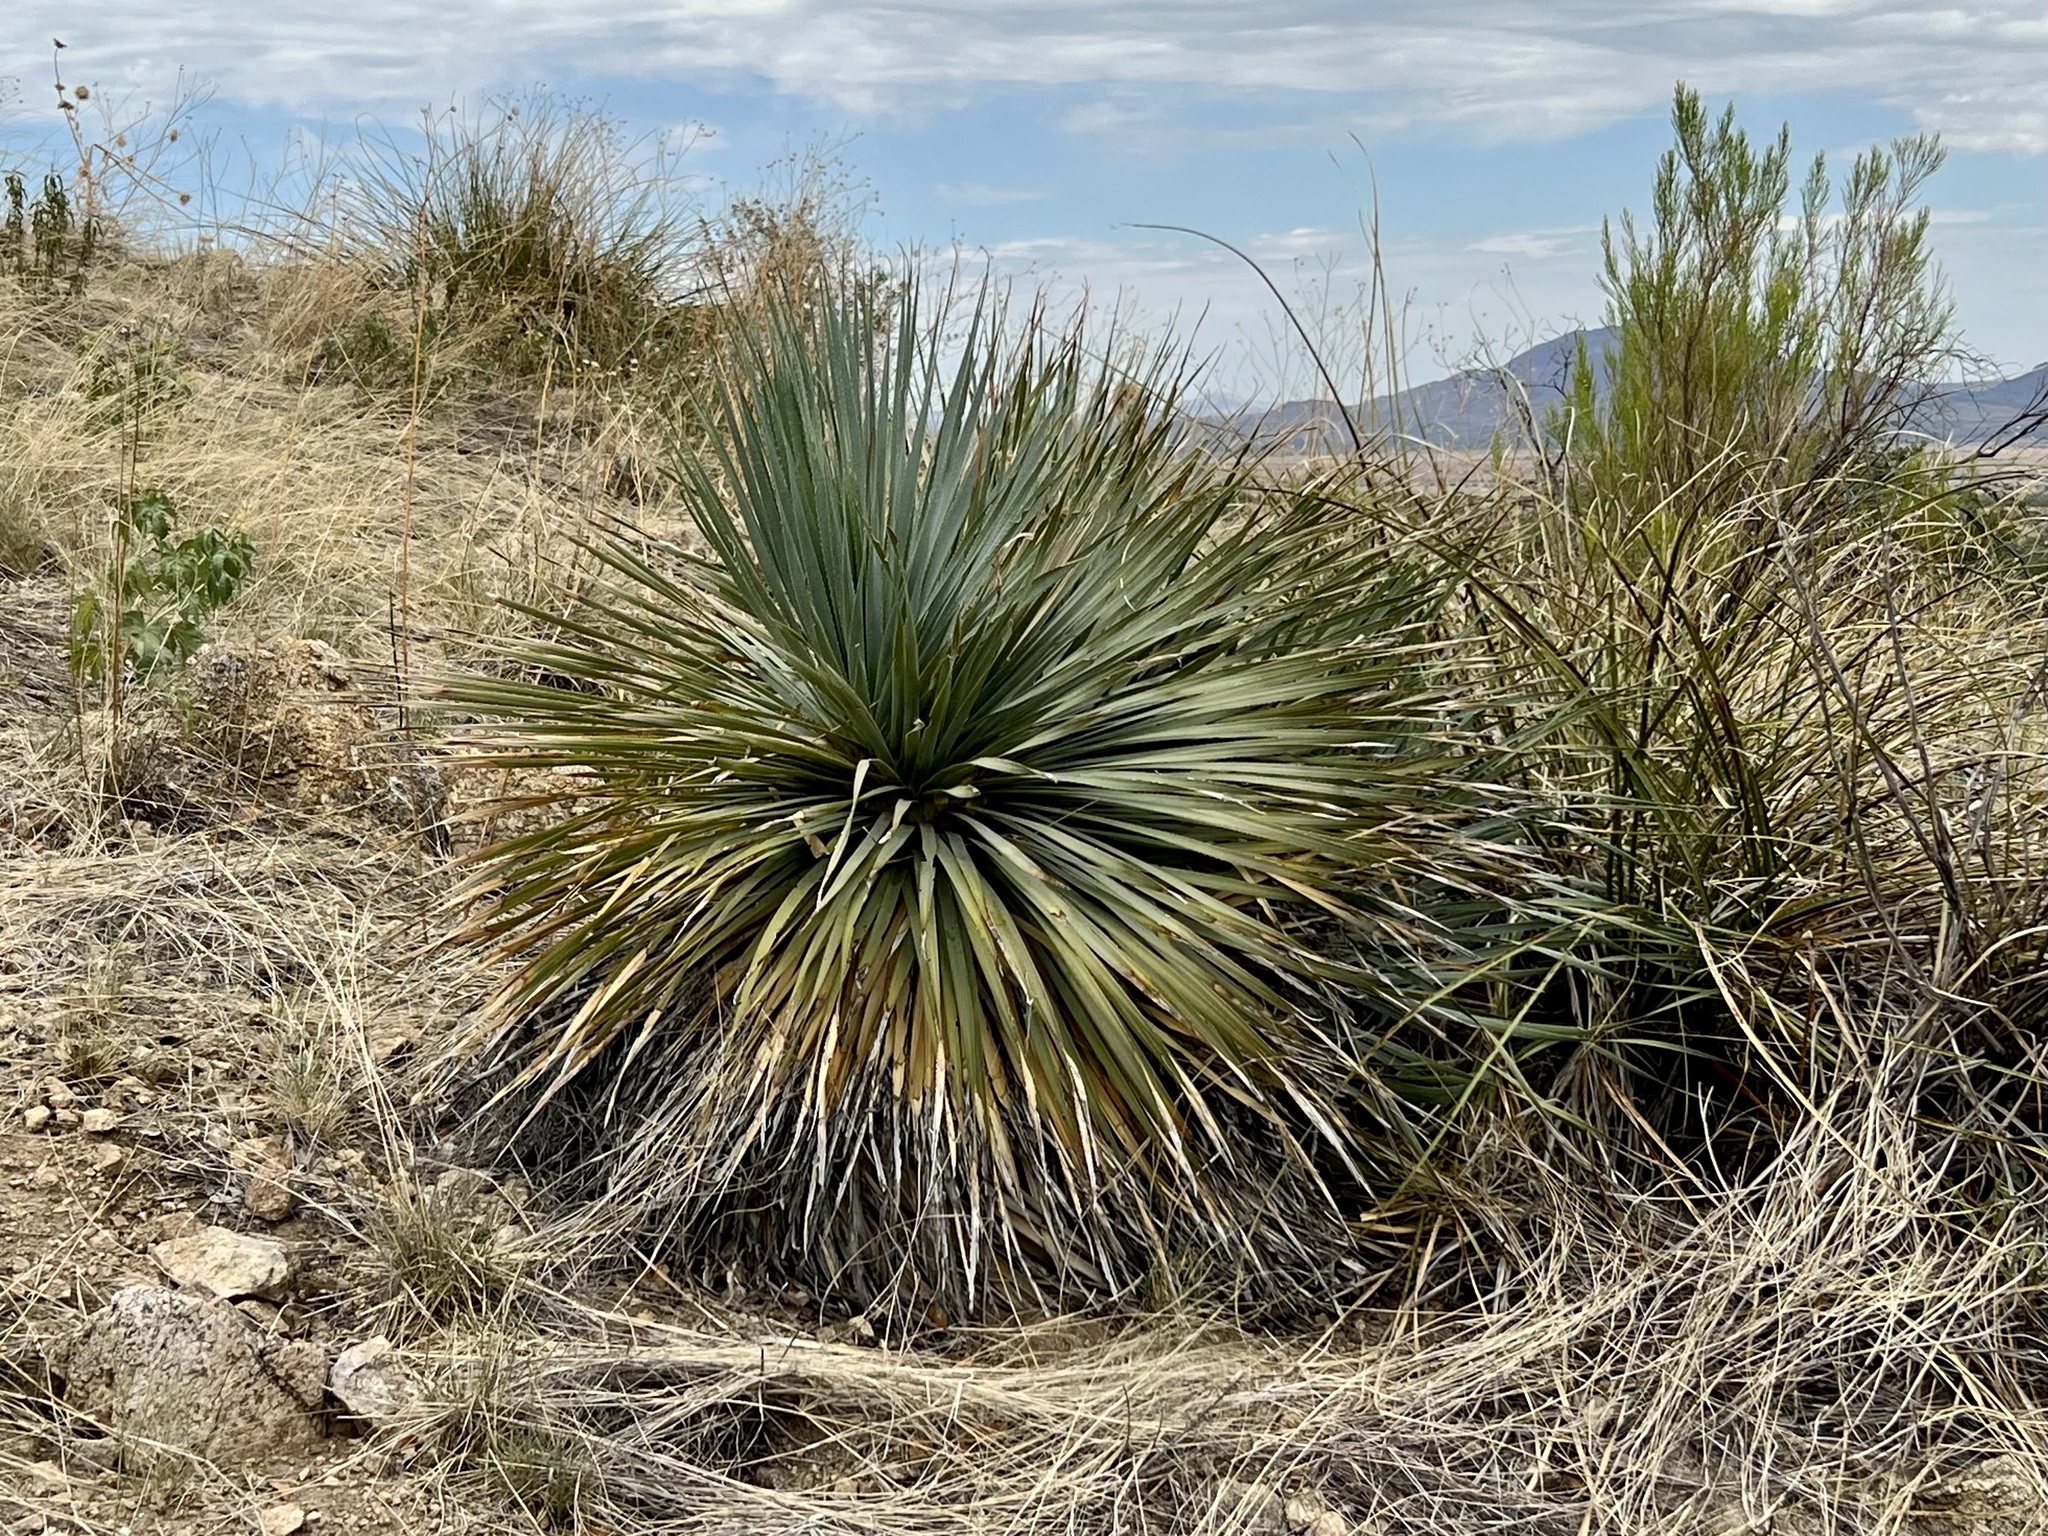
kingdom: Plantae
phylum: Tracheophyta
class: Liliopsida
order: Asparagales
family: Asparagaceae
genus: Dasylirion
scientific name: Dasylirion wheeleri
